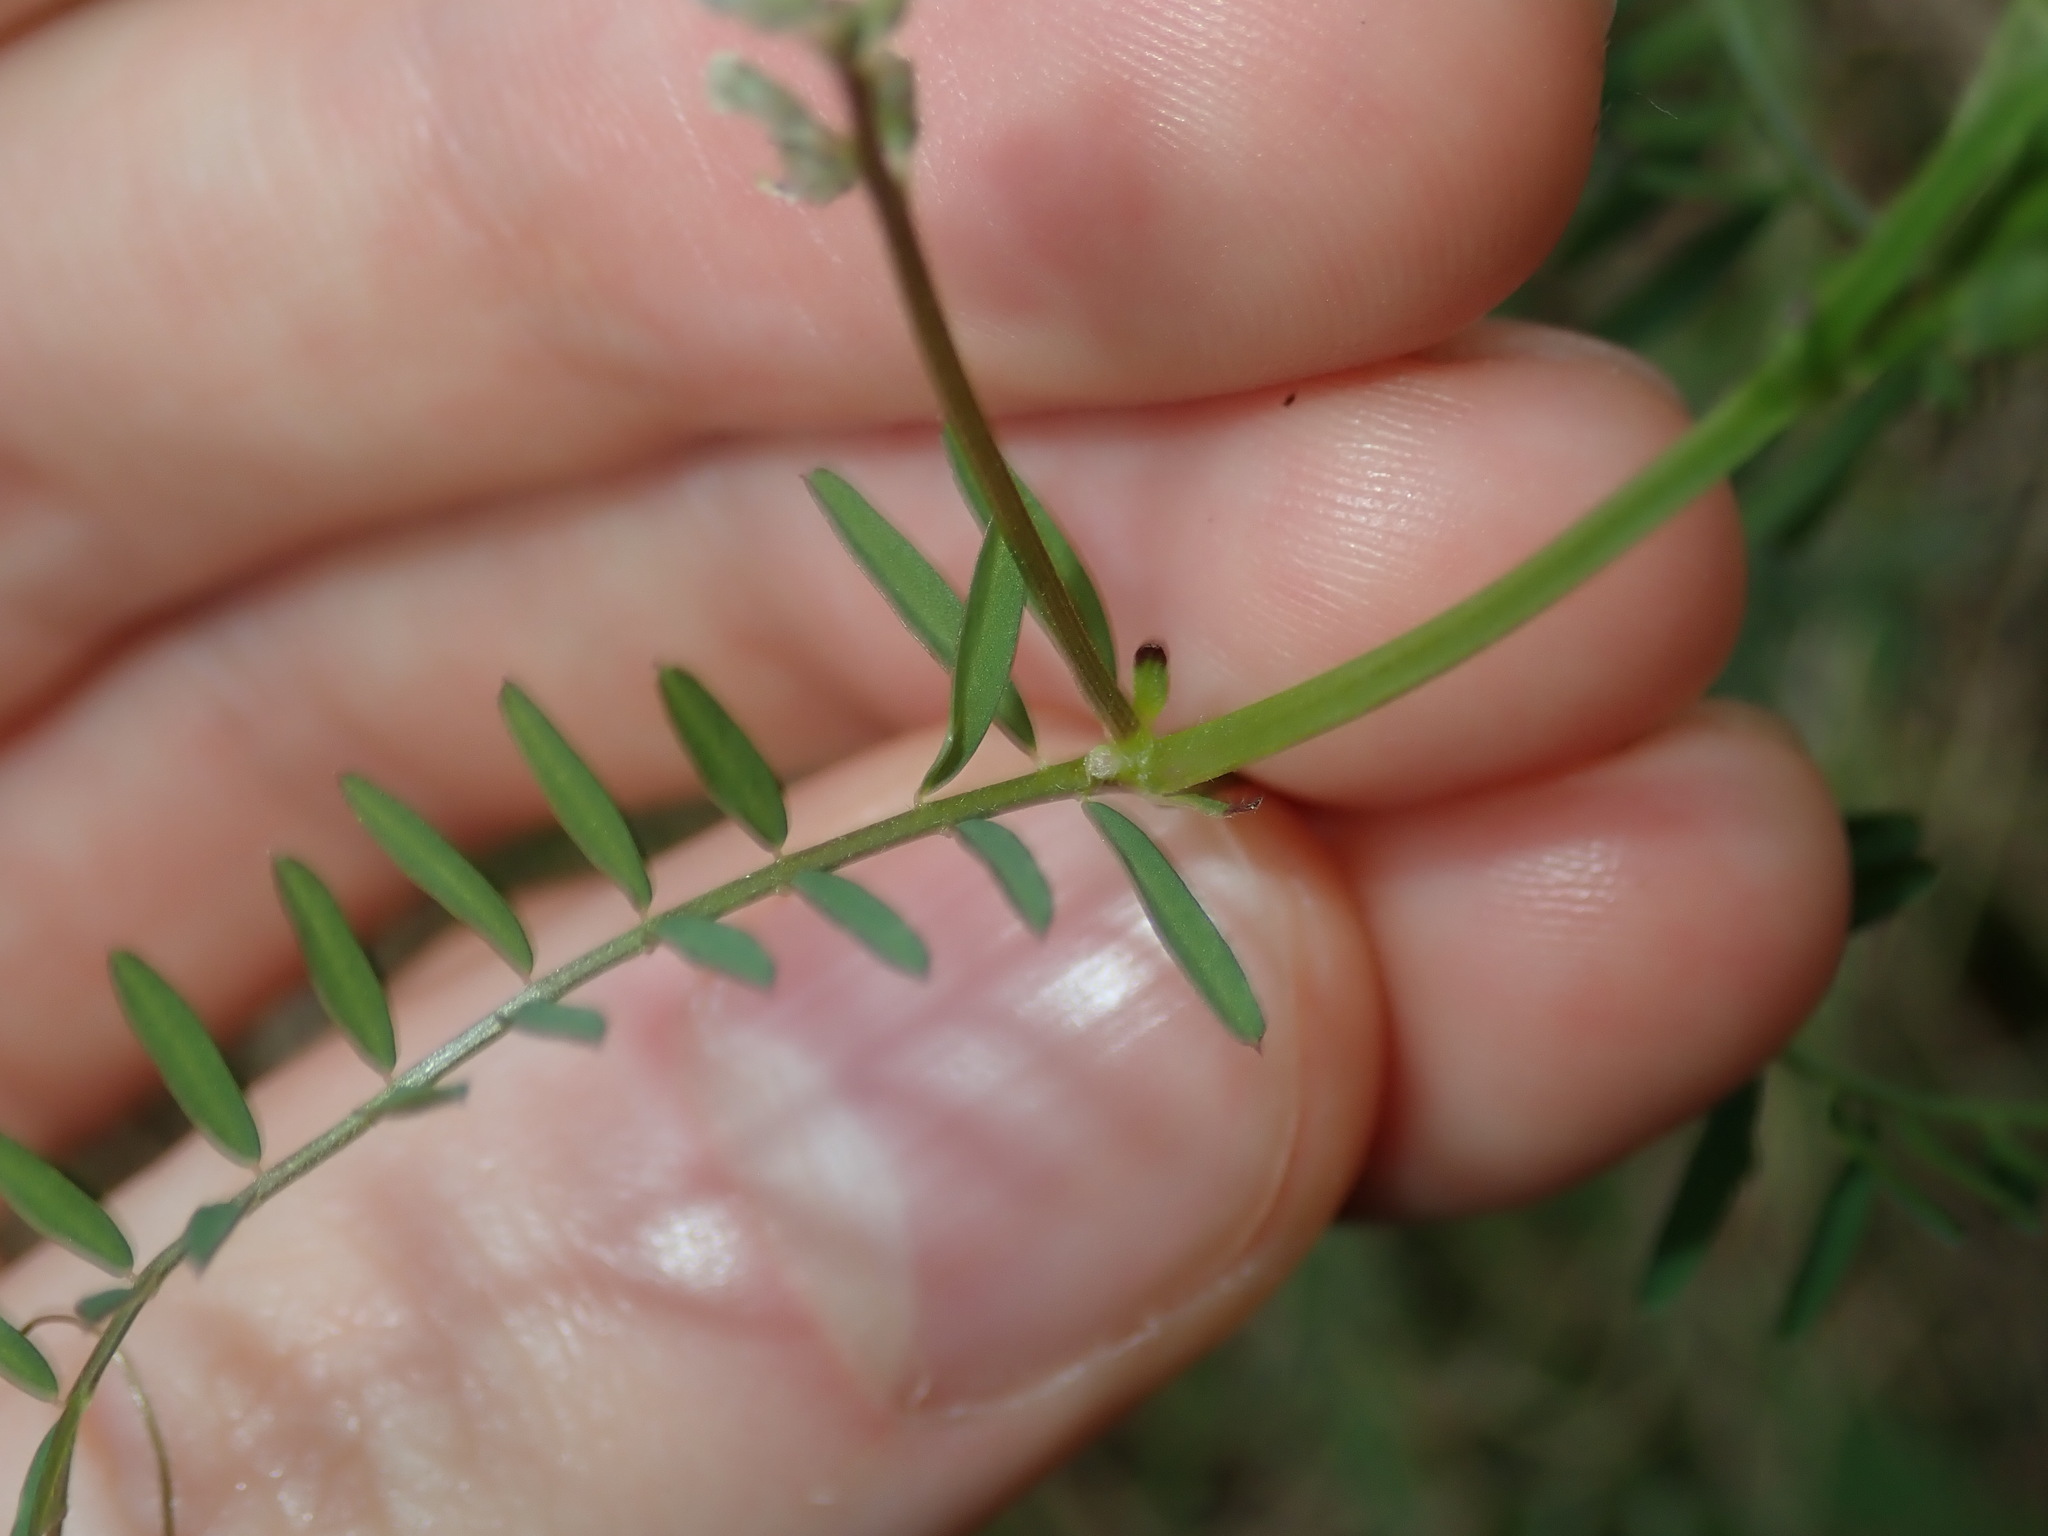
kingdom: Plantae
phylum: Tracheophyta
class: Magnoliopsida
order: Fabales
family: Fabaceae
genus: Vicia
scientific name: Vicia hirsuta
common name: Tiny vetch
